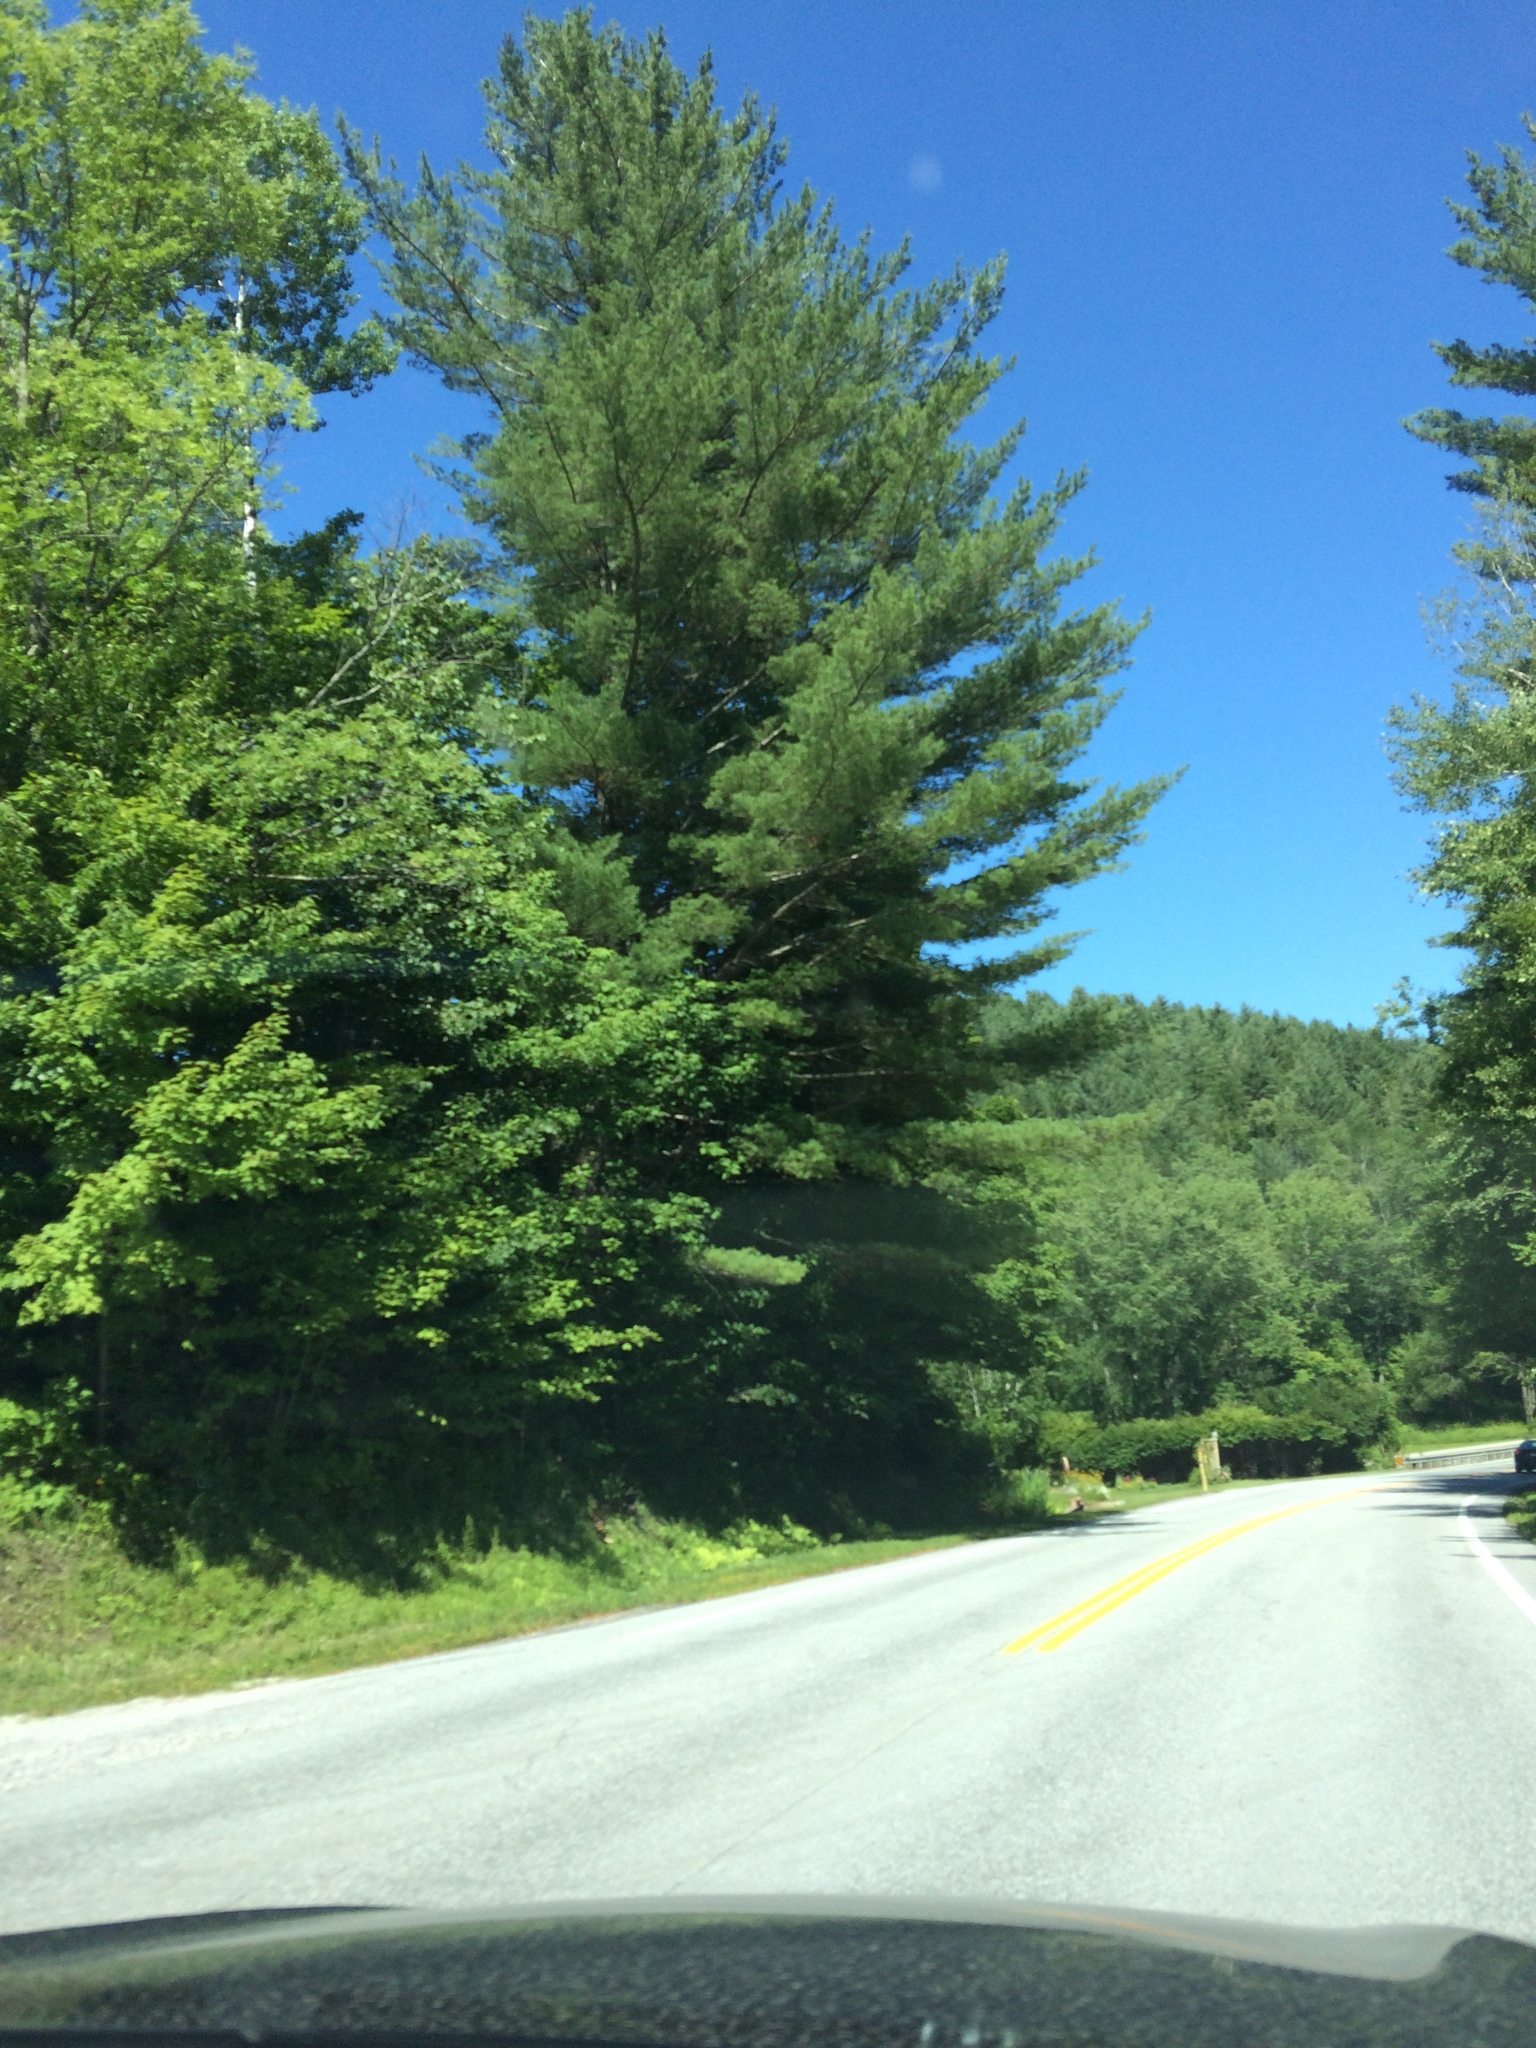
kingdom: Plantae
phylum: Tracheophyta
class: Pinopsida
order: Pinales
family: Pinaceae
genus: Pinus
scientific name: Pinus strobus
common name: Weymouth pine
